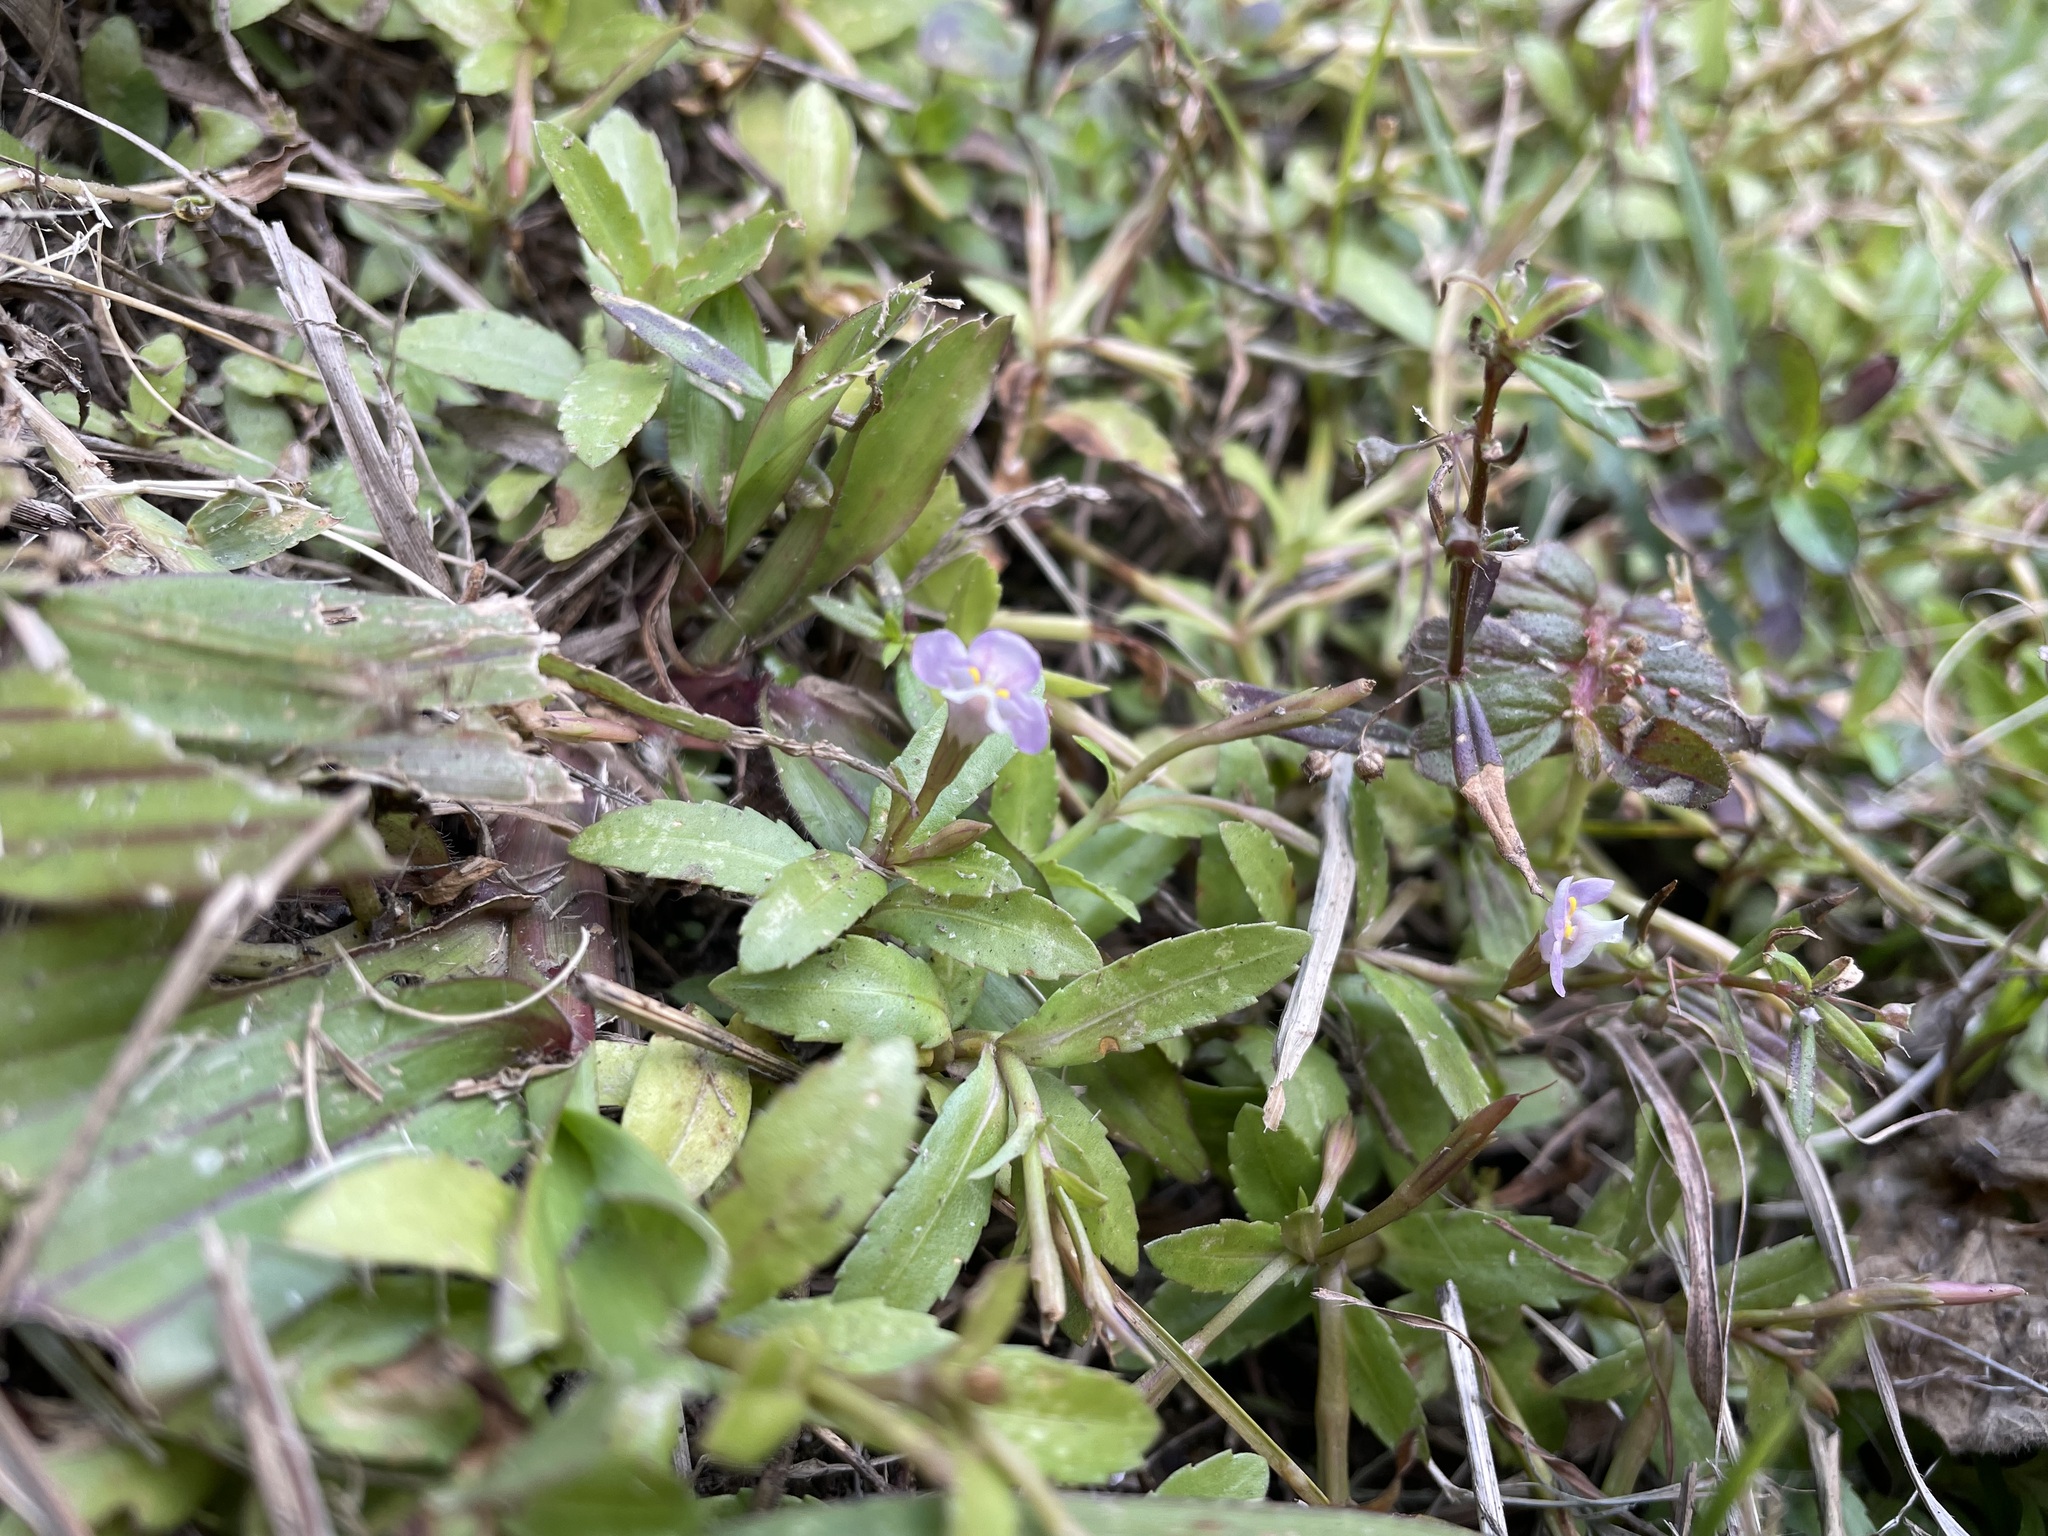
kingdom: Plantae
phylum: Tracheophyta
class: Magnoliopsida
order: Lamiales
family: Linderniaceae
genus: Bonnaya
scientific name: Bonnaya antipoda
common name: Sparrow false pimpernel
